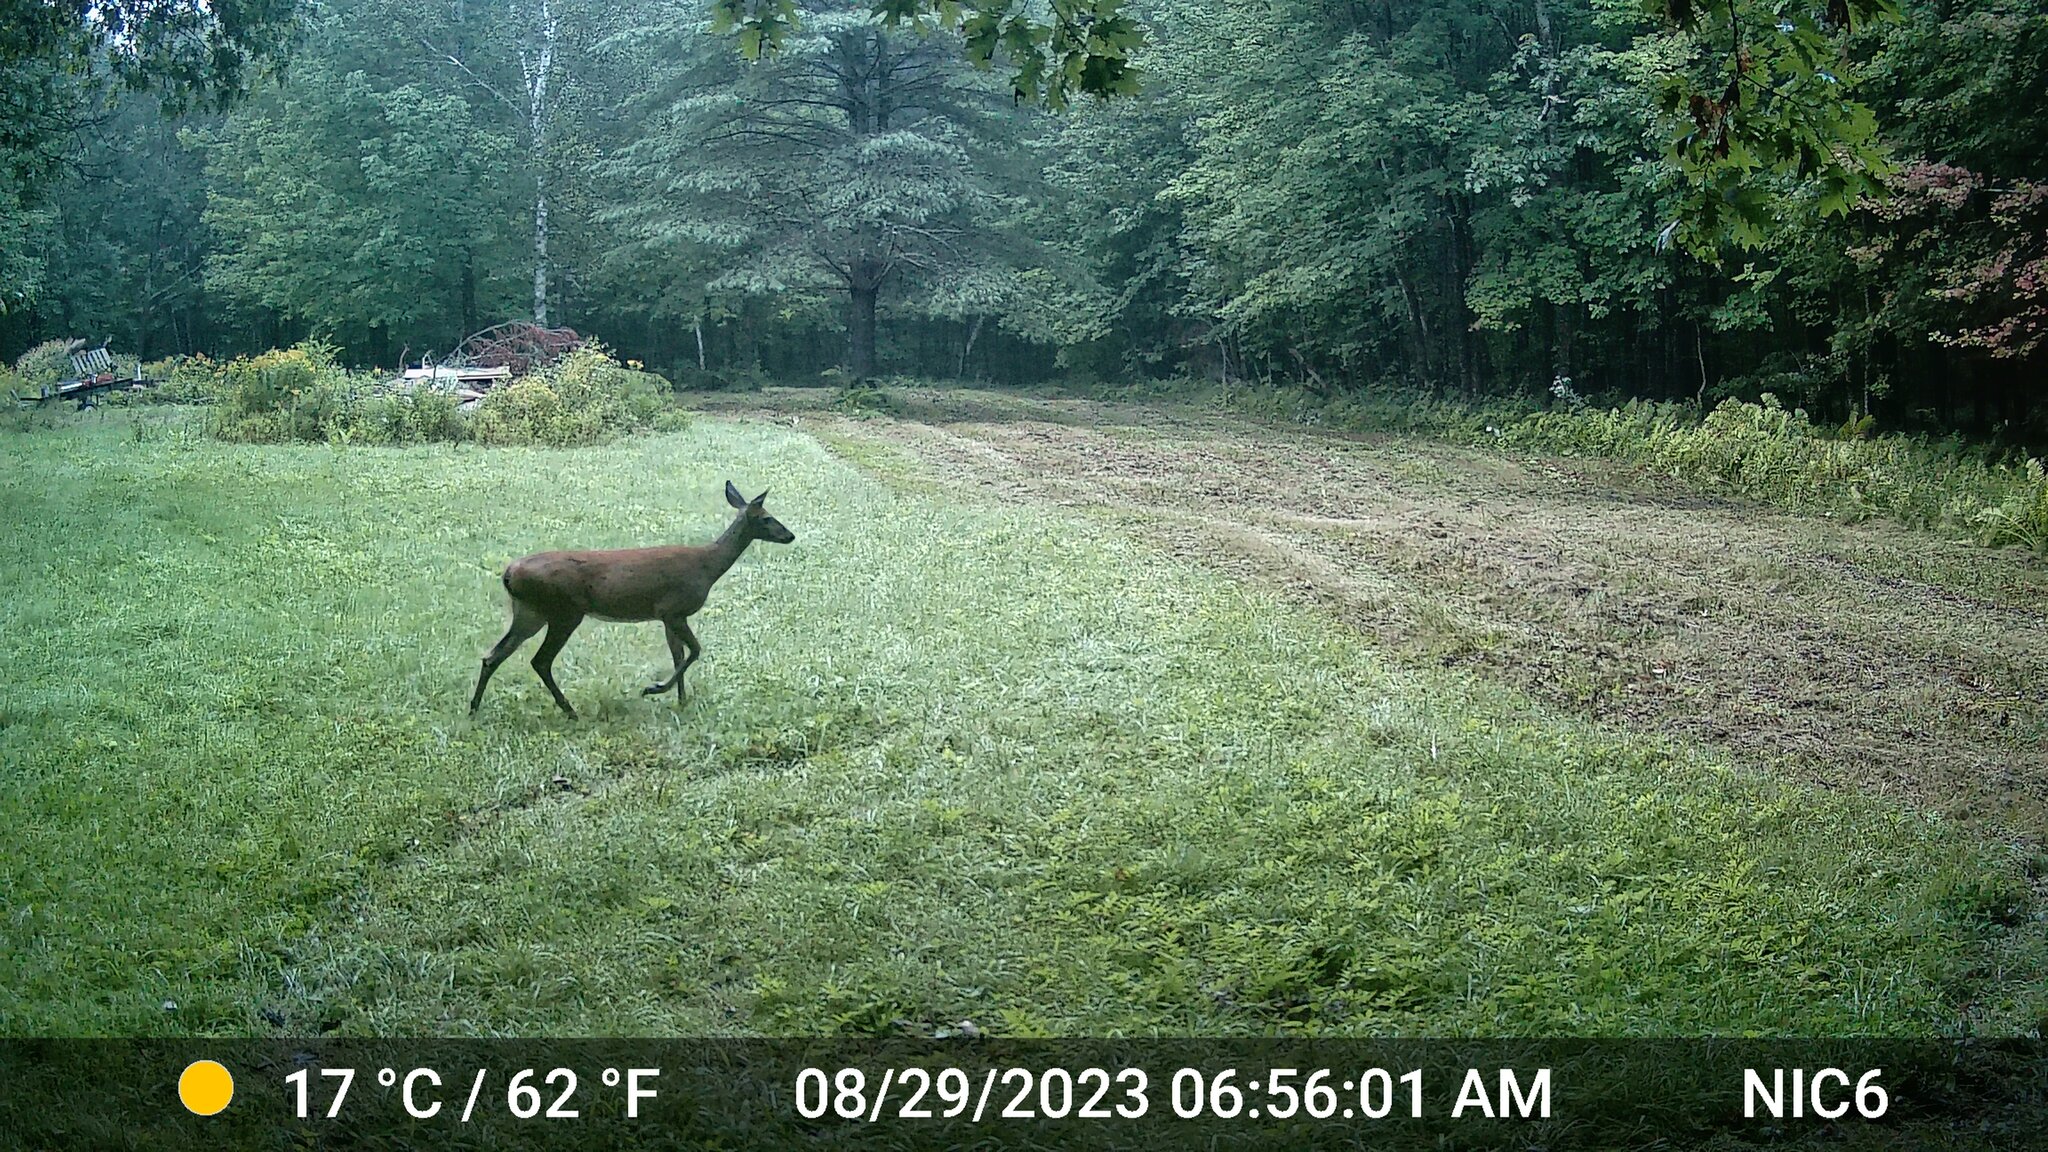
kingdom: Animalia
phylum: Chordata
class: Mammalia
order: Artiodactyla
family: Cervidae
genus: Odocoileus
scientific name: Odocoileus virginianus
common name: White-tailed deer
